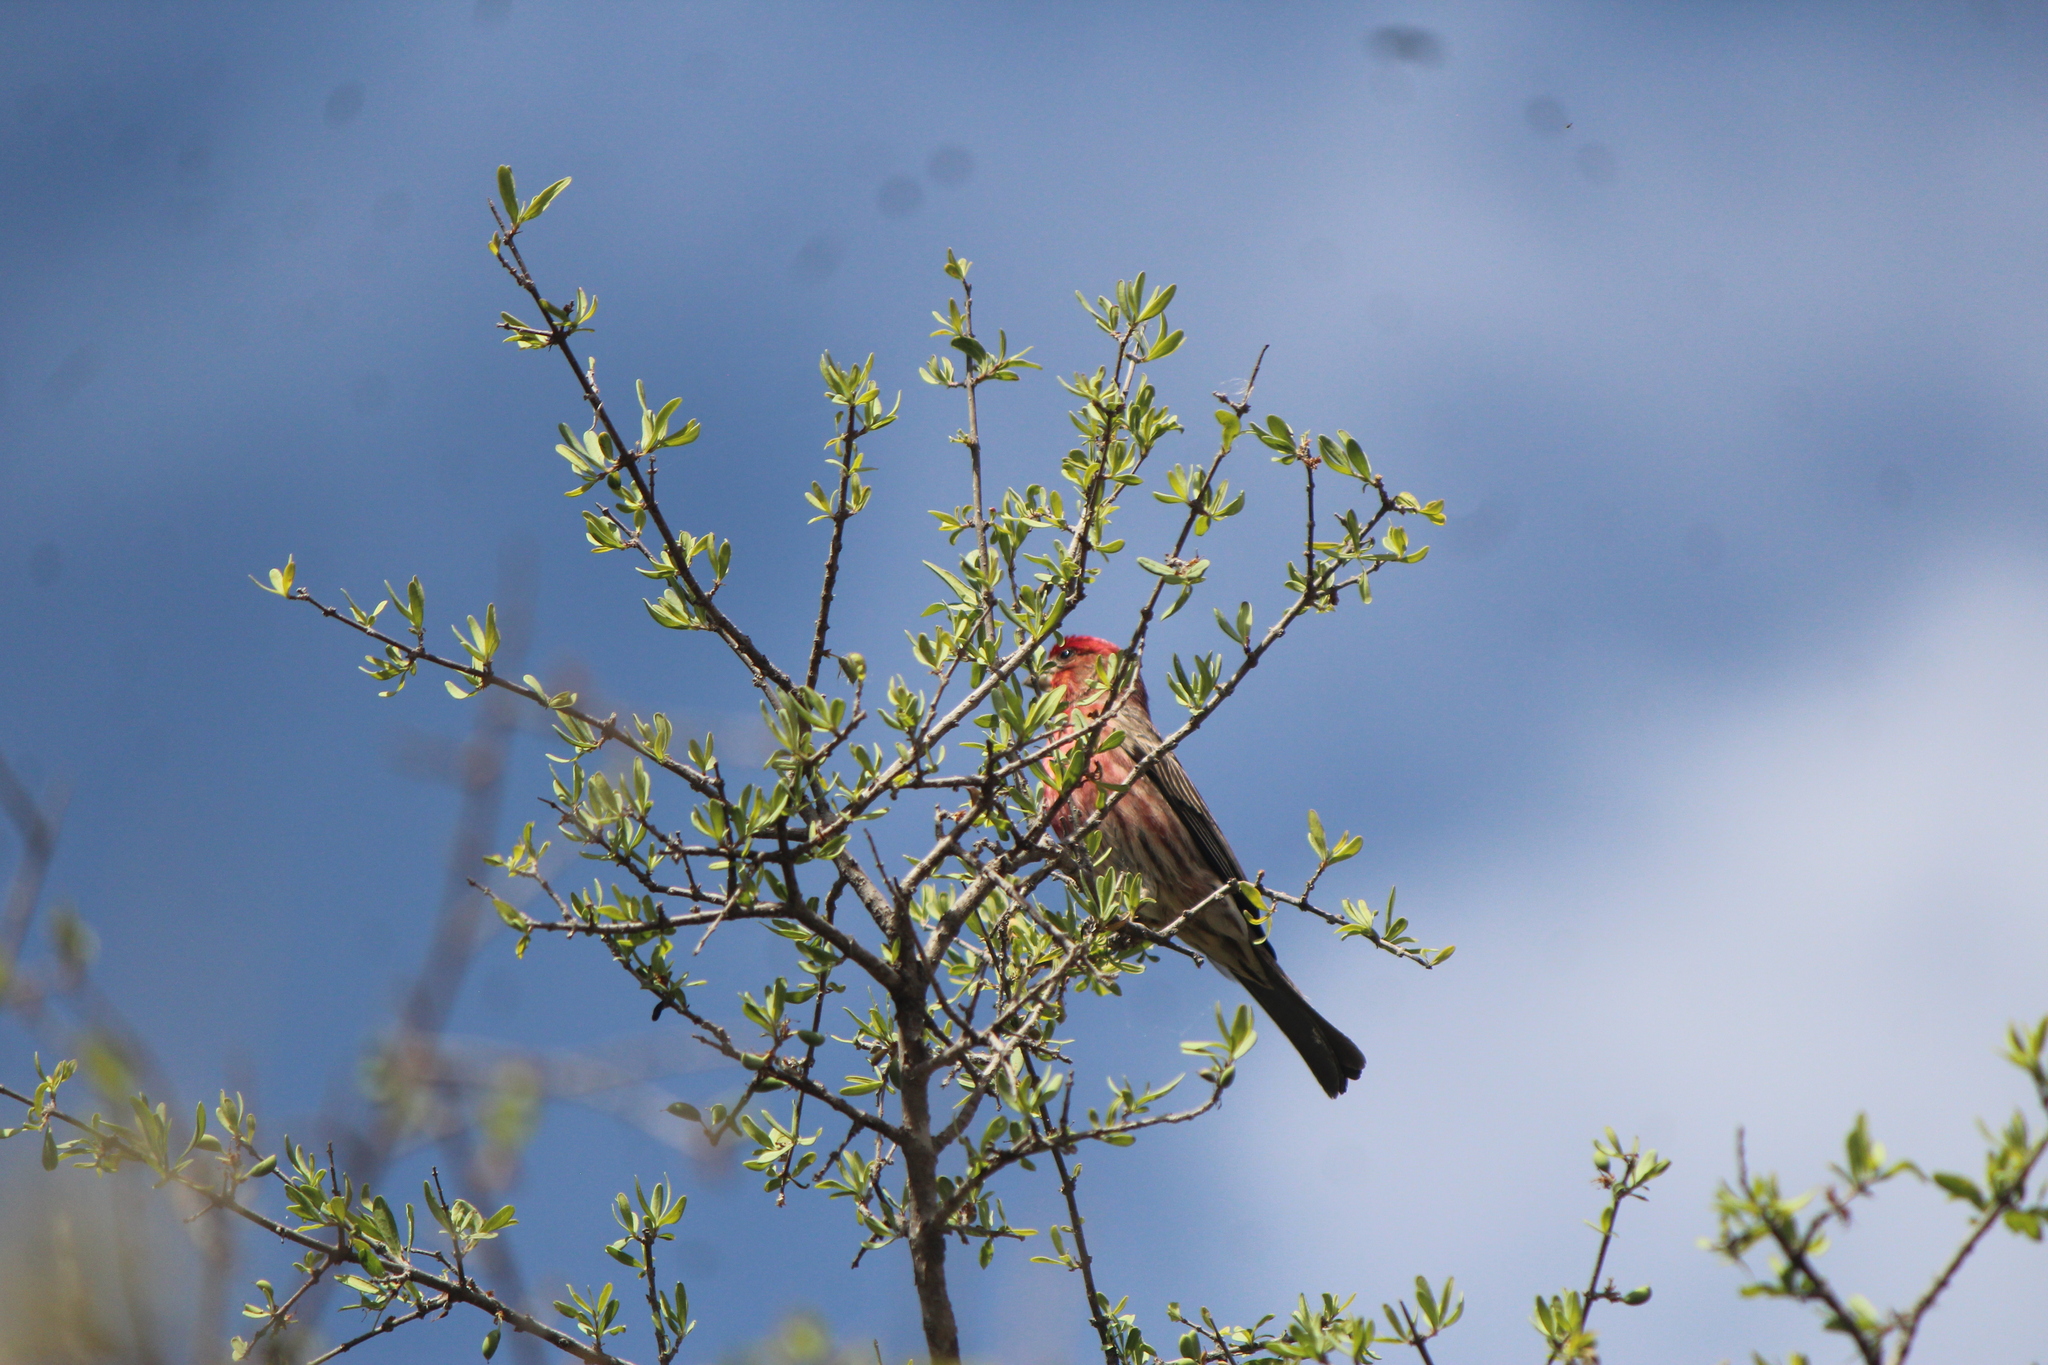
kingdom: Animalia
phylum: Chordata
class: Aves
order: Passeriformes
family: Fringillidae
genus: Haemorhous
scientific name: Haemorhous mexicanus
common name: House finch
